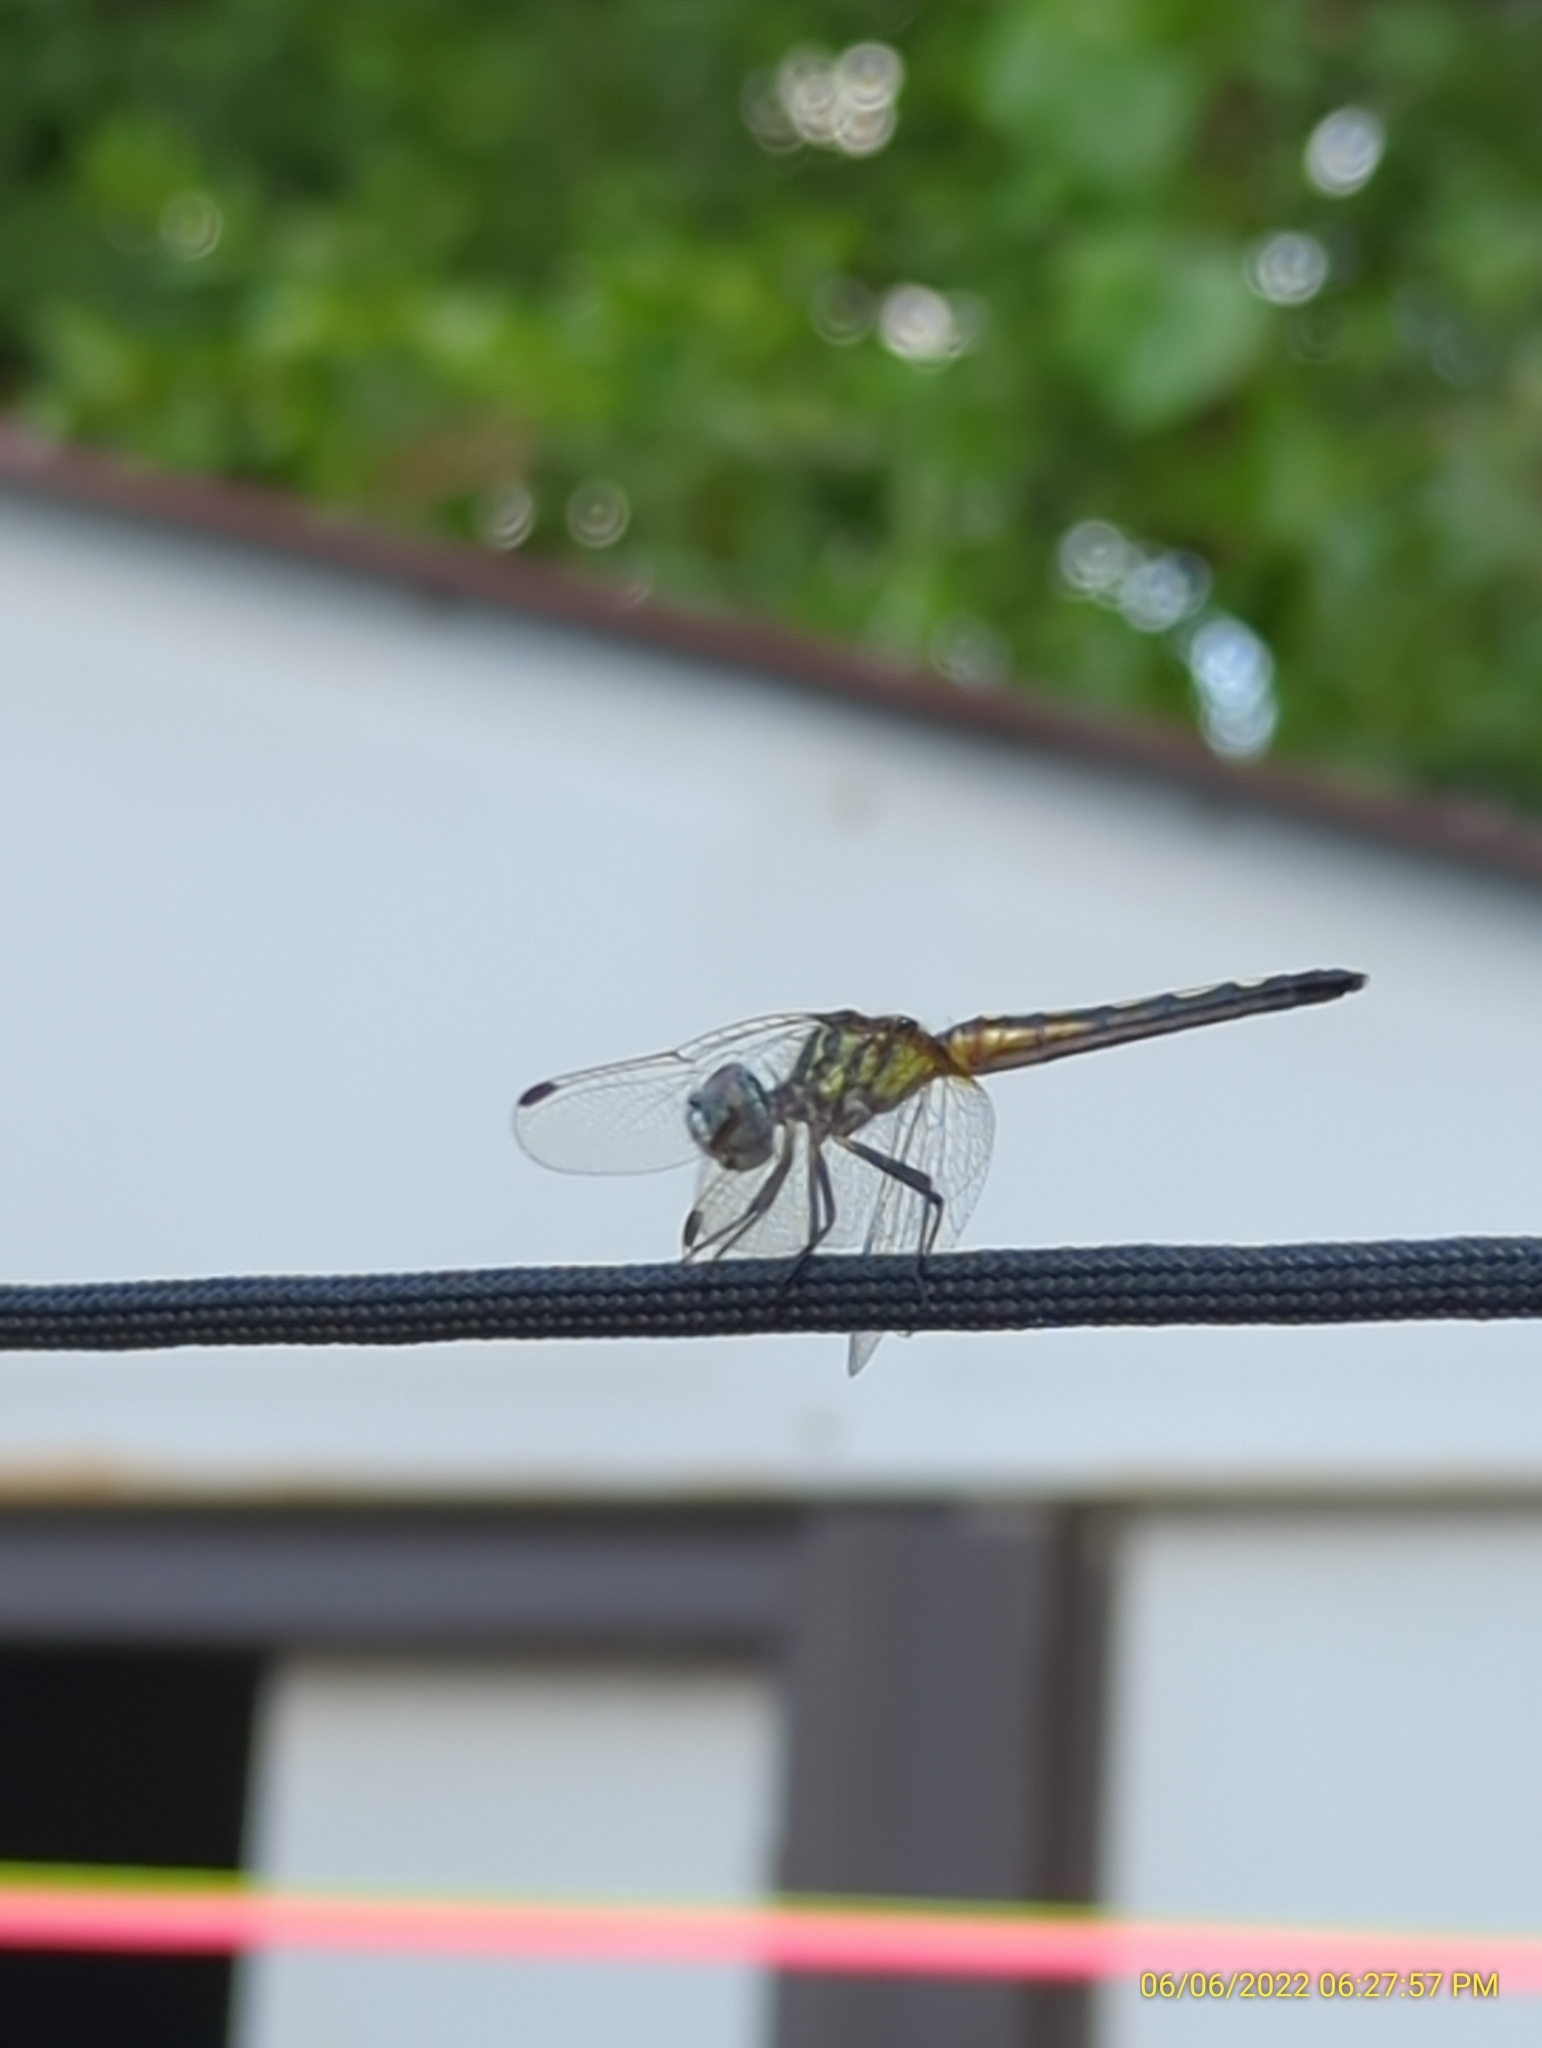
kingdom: Animalia
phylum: Arthropoda
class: Insecta
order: Odonata
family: Libellulidae
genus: Pachydiplax
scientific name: Pachydiplax longipennis
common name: Blue dasher
